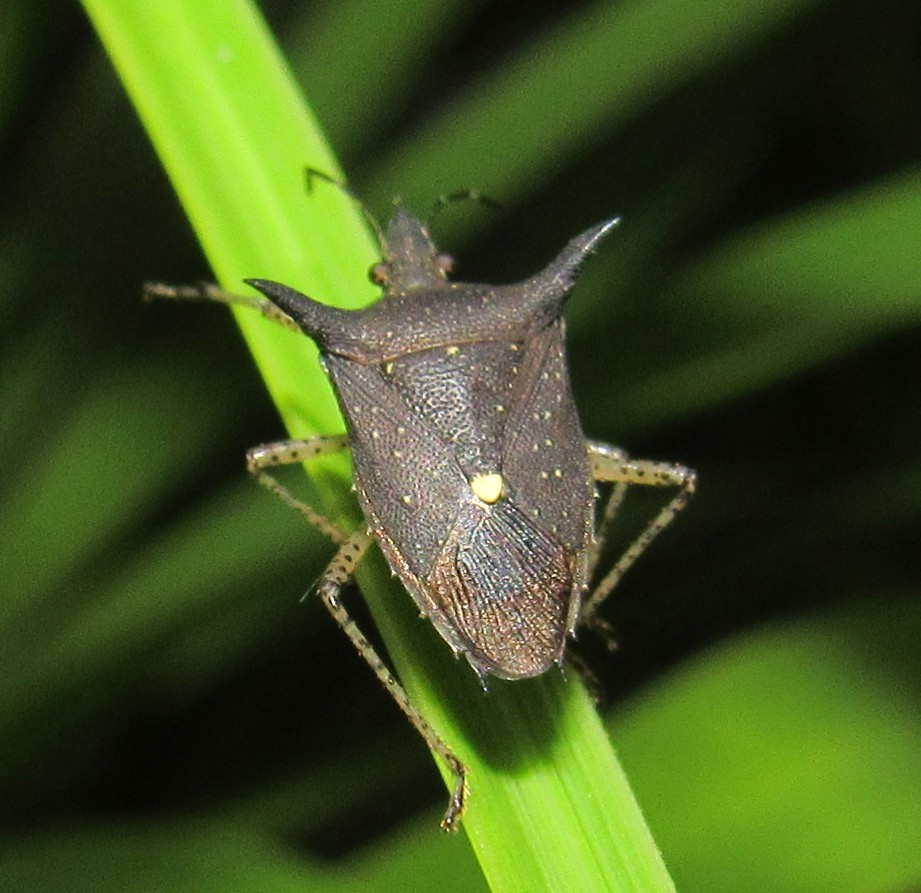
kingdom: Animalia
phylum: Arthropoda
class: Insecta
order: Hemiptera
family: Pentatomidae
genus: Proxys
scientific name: Proxys albopunctulatus
